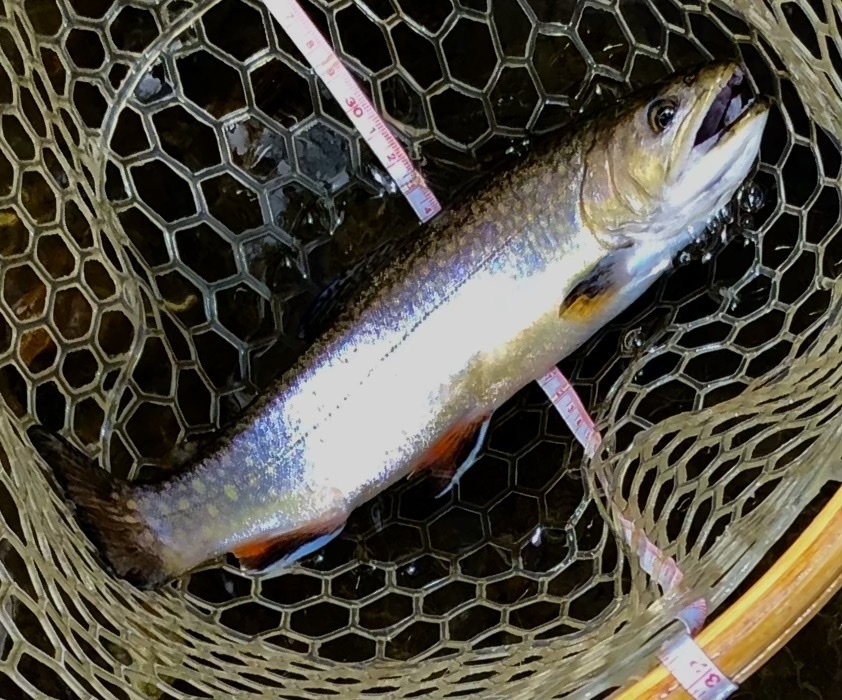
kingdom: Animalia
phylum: Chordata
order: Salmoniformes
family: Salmonidae
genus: Salvelinus
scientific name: Salvelinus fontinalis
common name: Brook trout
